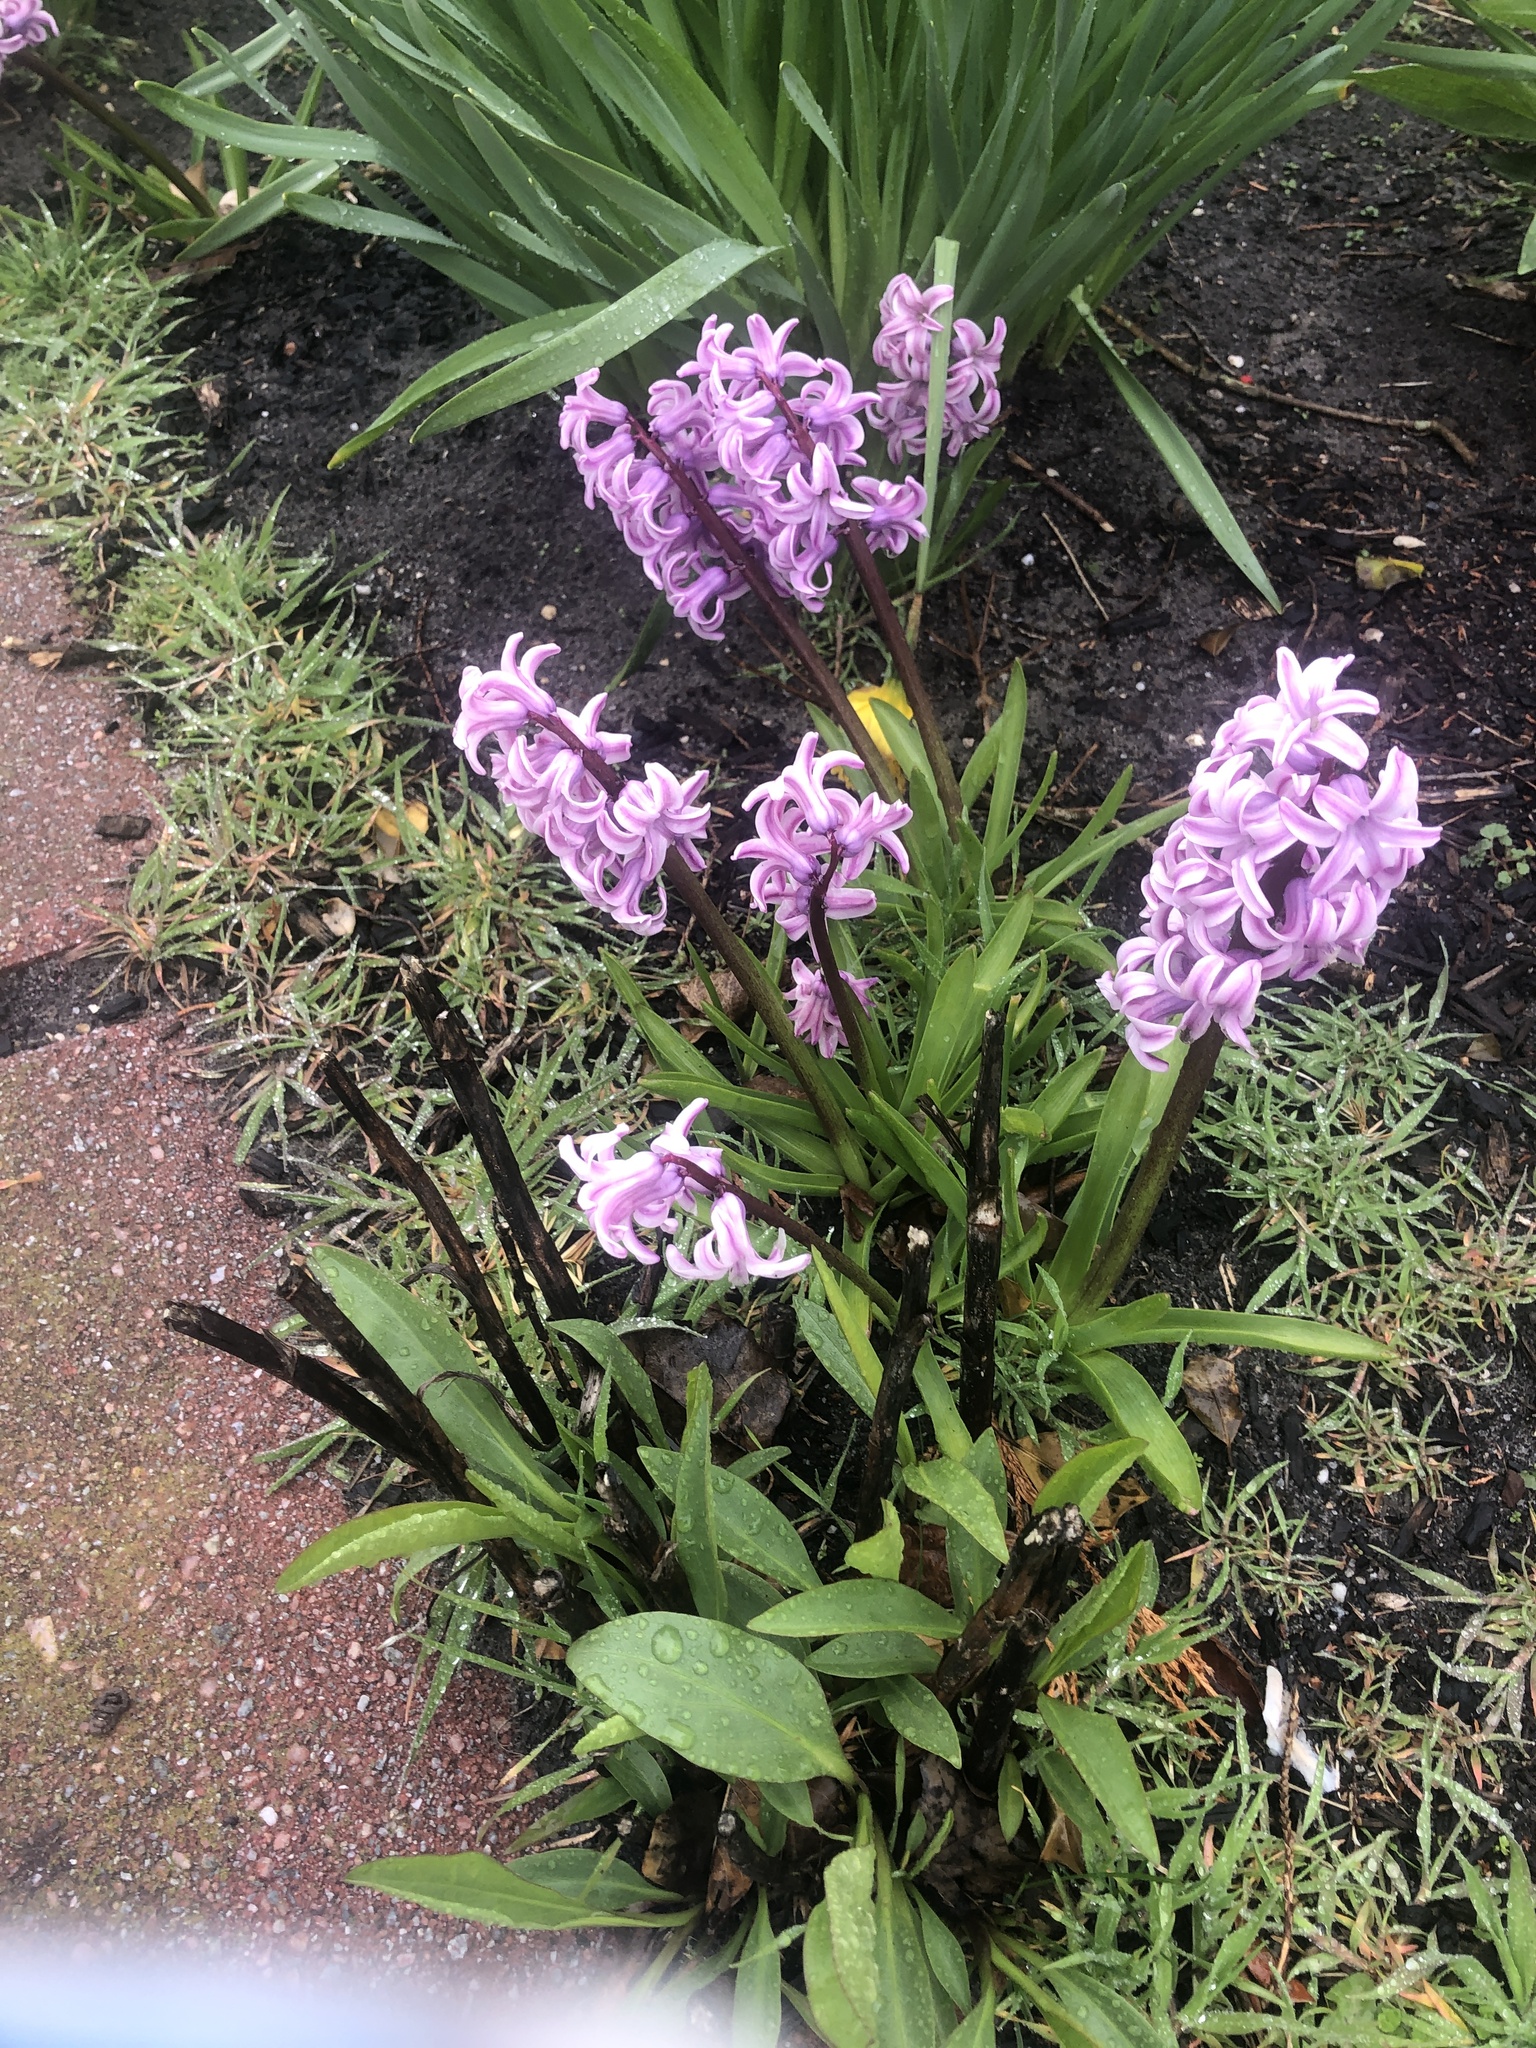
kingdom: Plantae
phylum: Tracheophyta
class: Liliopsida
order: Asparagales
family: Asparagaceae
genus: Hyacinthus
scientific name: Hyacinthus orientalis
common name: Hyacinth
